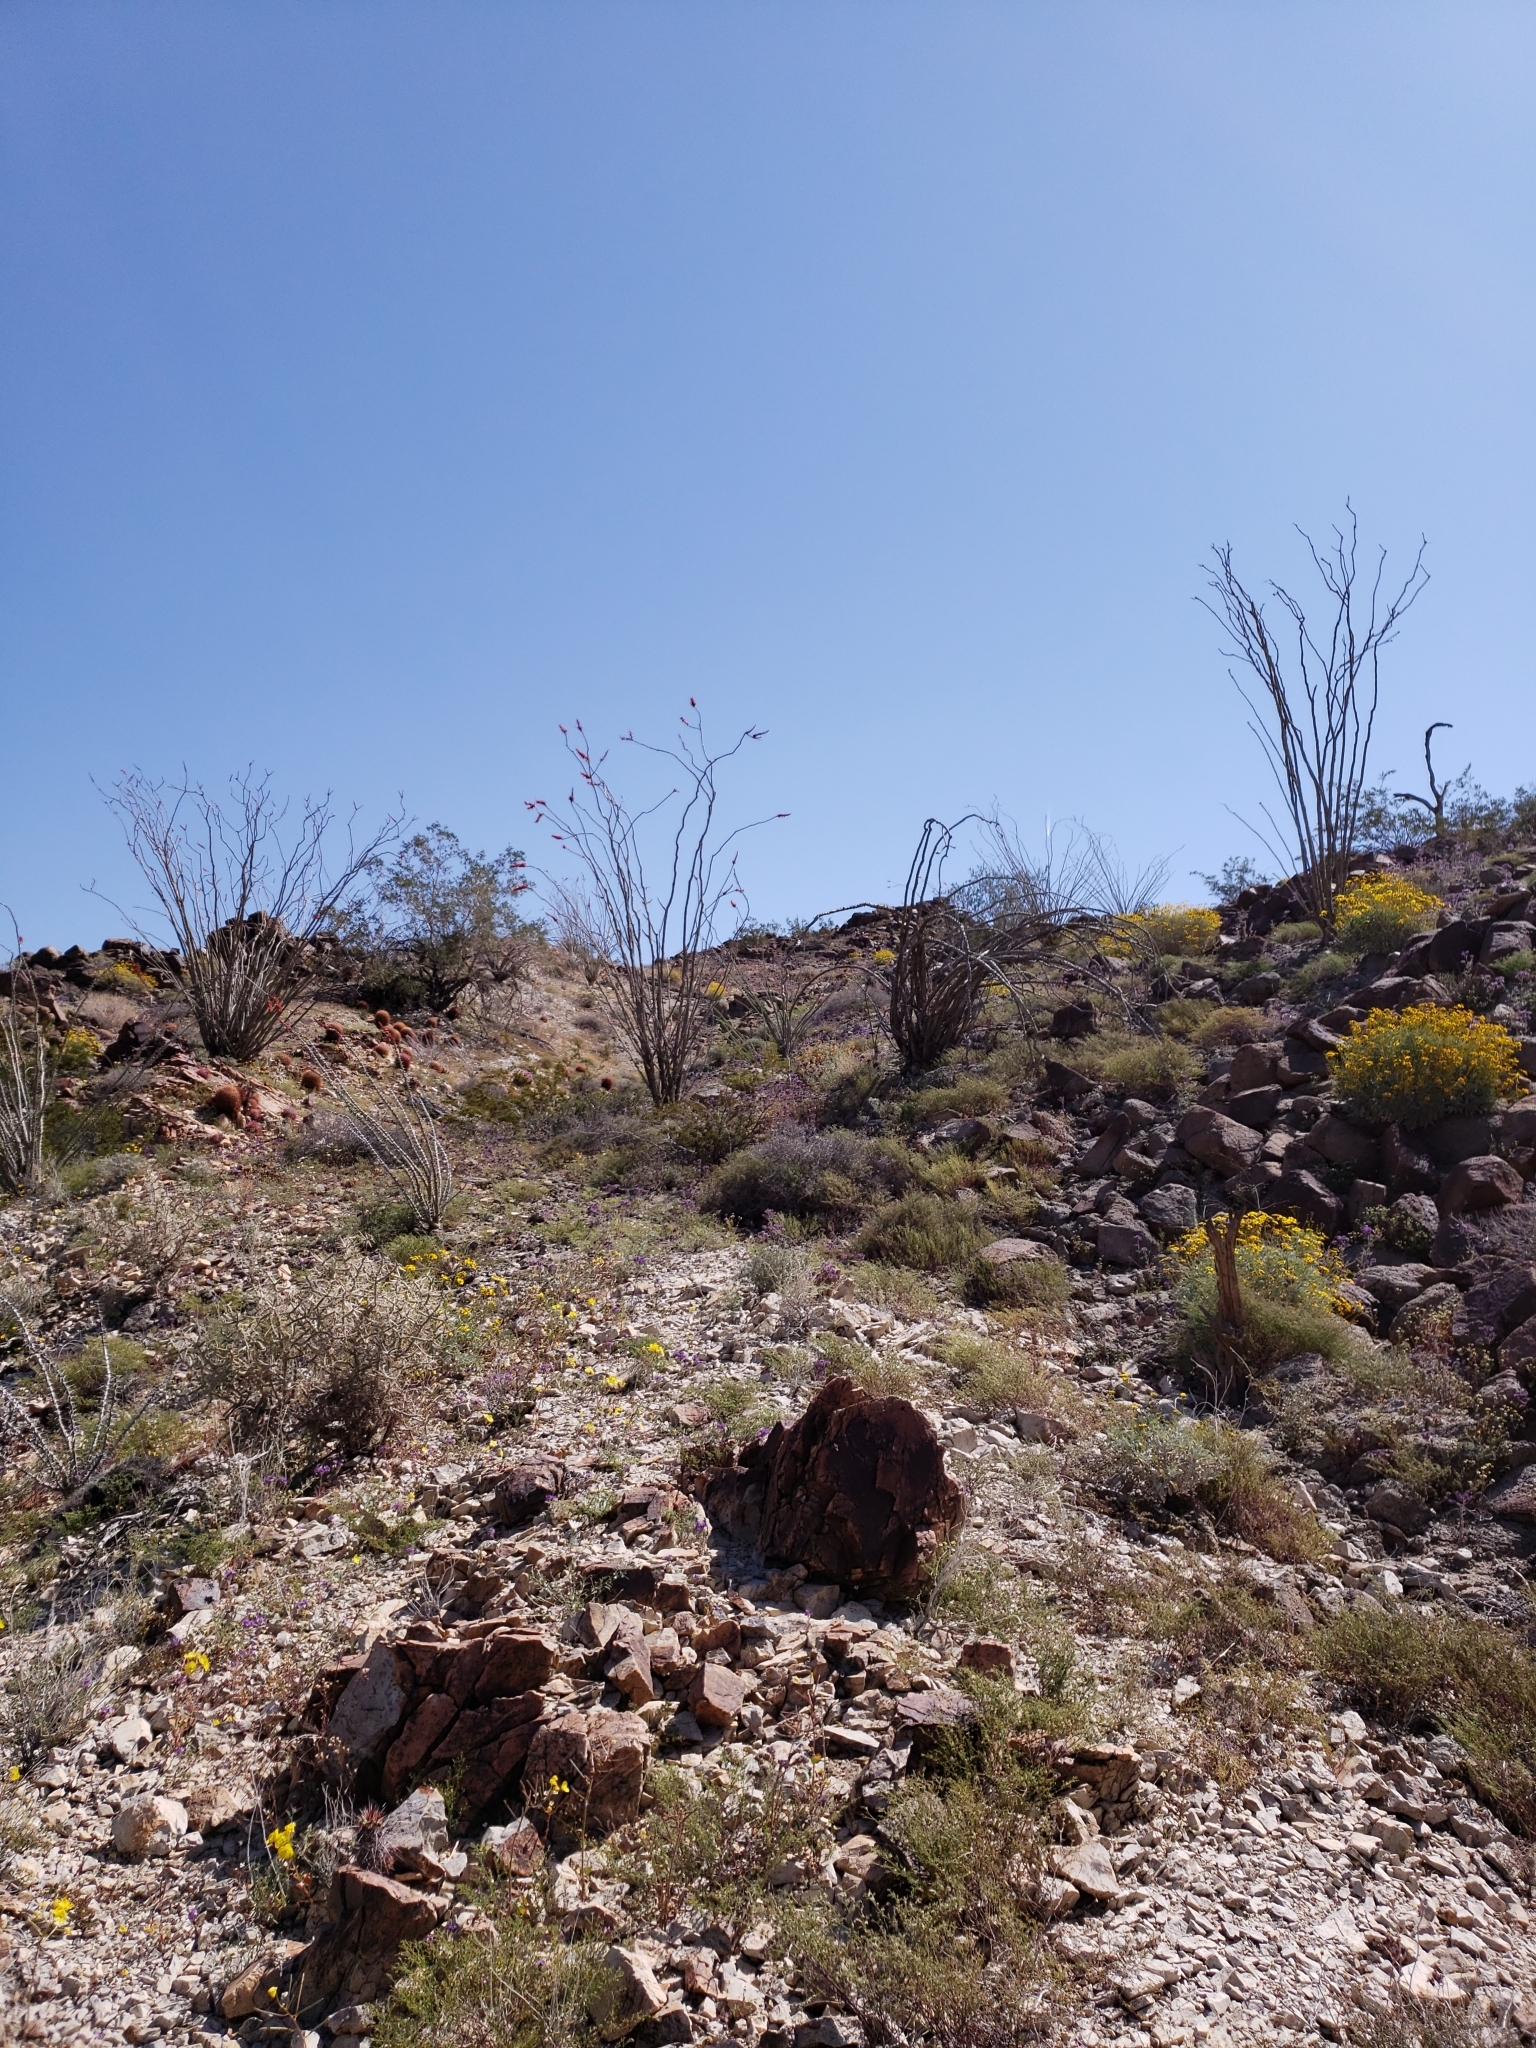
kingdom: Plantae
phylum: Tracheophyta
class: Magnoliopsida
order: Ericales
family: Fouquieriaceae
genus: Fouquieria
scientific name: Fouquieria splendens
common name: Vine-cactus
